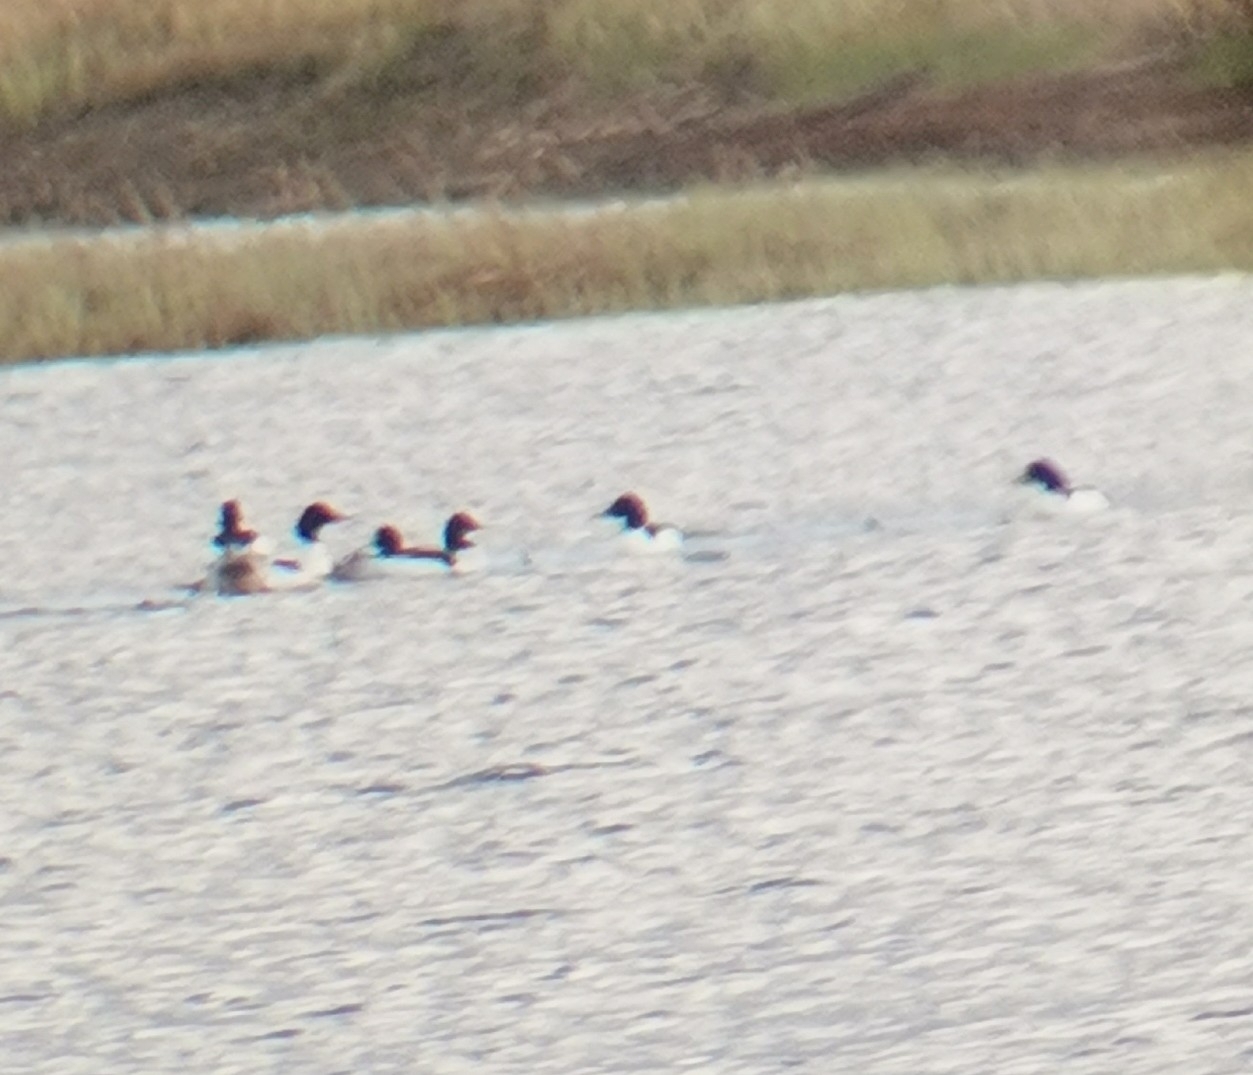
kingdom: Animalia
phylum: Chordata
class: Aves
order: Anseriformes
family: Anatidae
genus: Mergus
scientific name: Mergus merganser
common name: Common merganser
